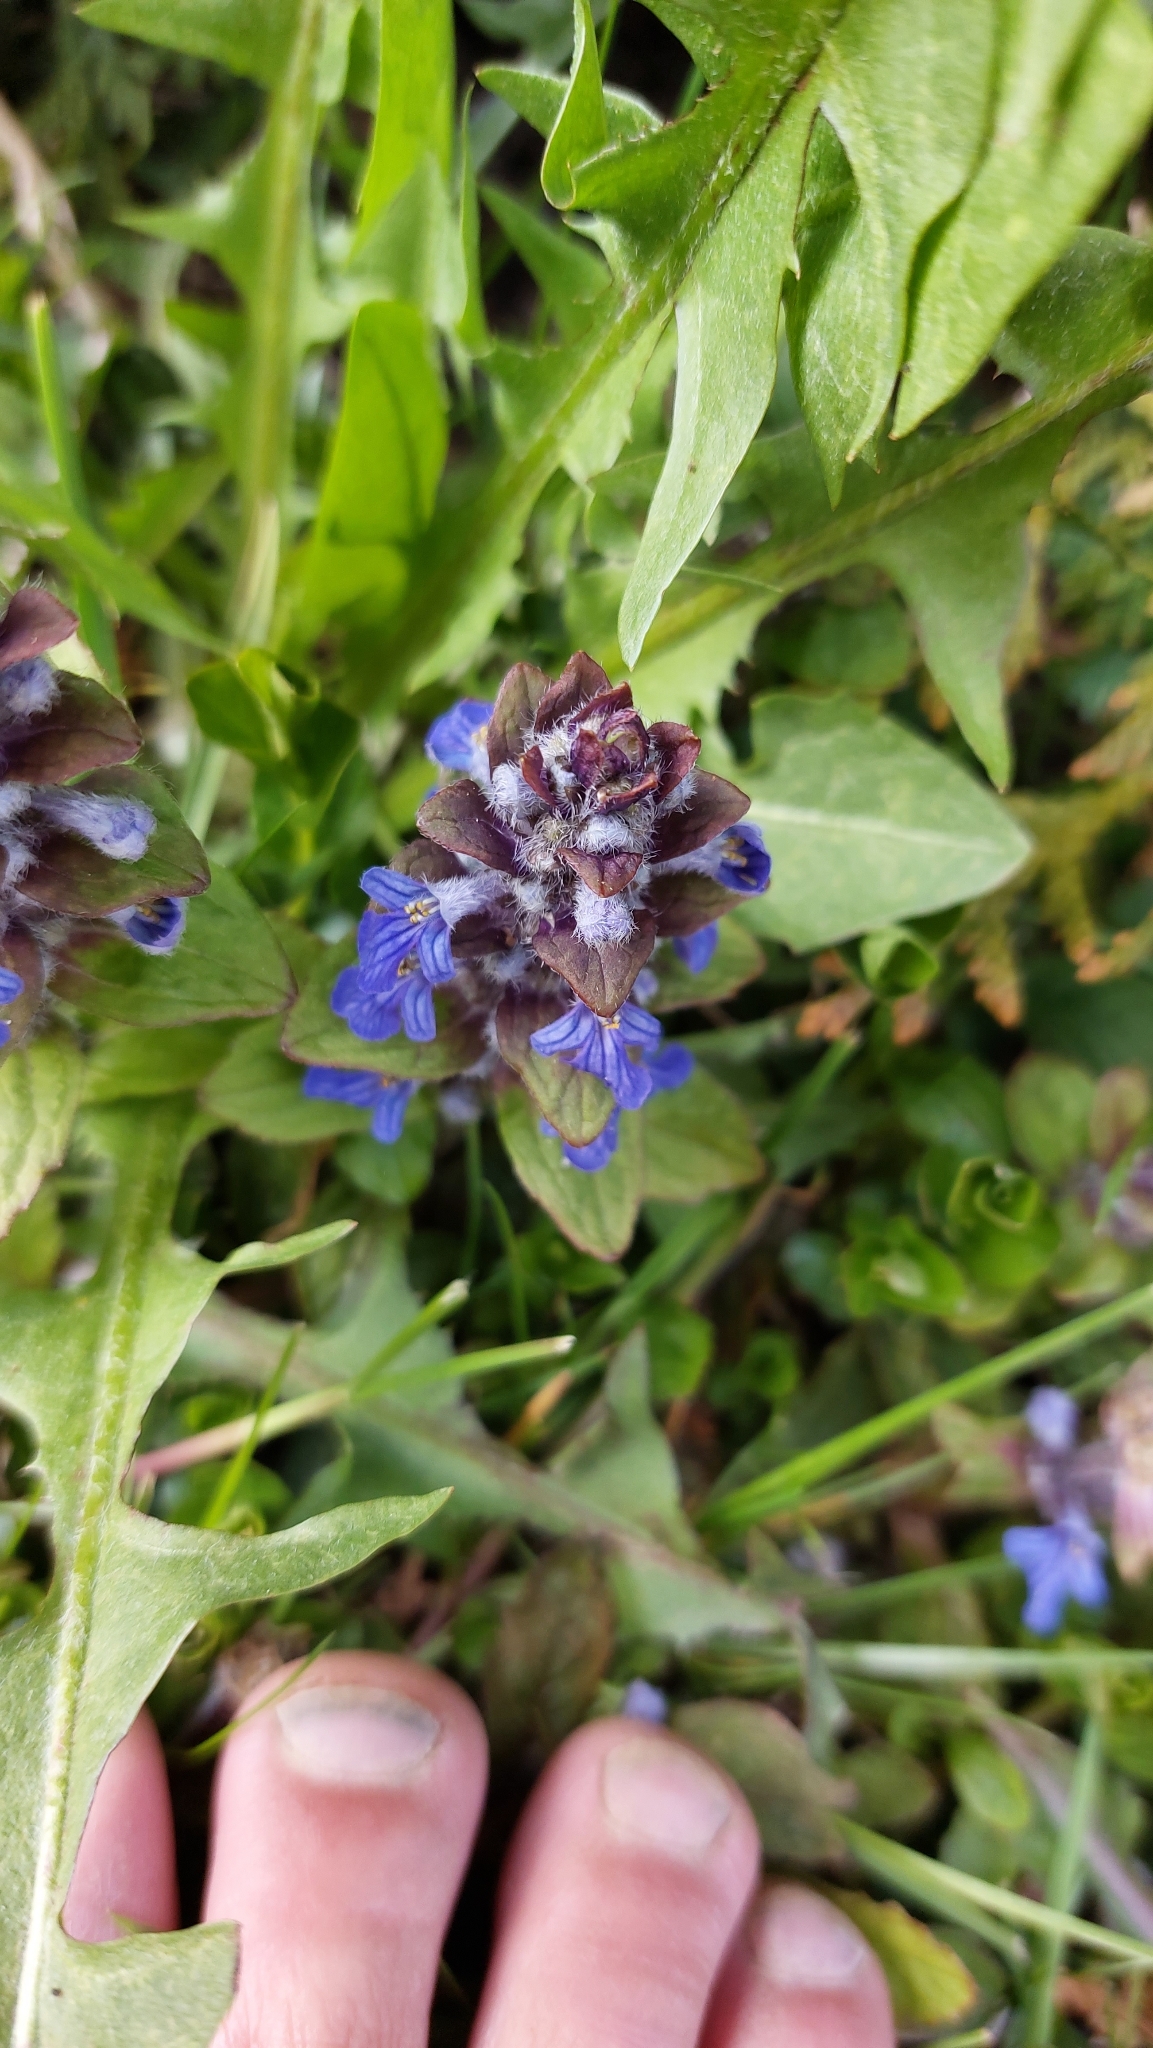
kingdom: Plantae
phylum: Tracheophyta
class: Magnoliopsida
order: Lamiales
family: Lamiaceae
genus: Ajuga
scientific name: Ajuga reptans
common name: Bugle
